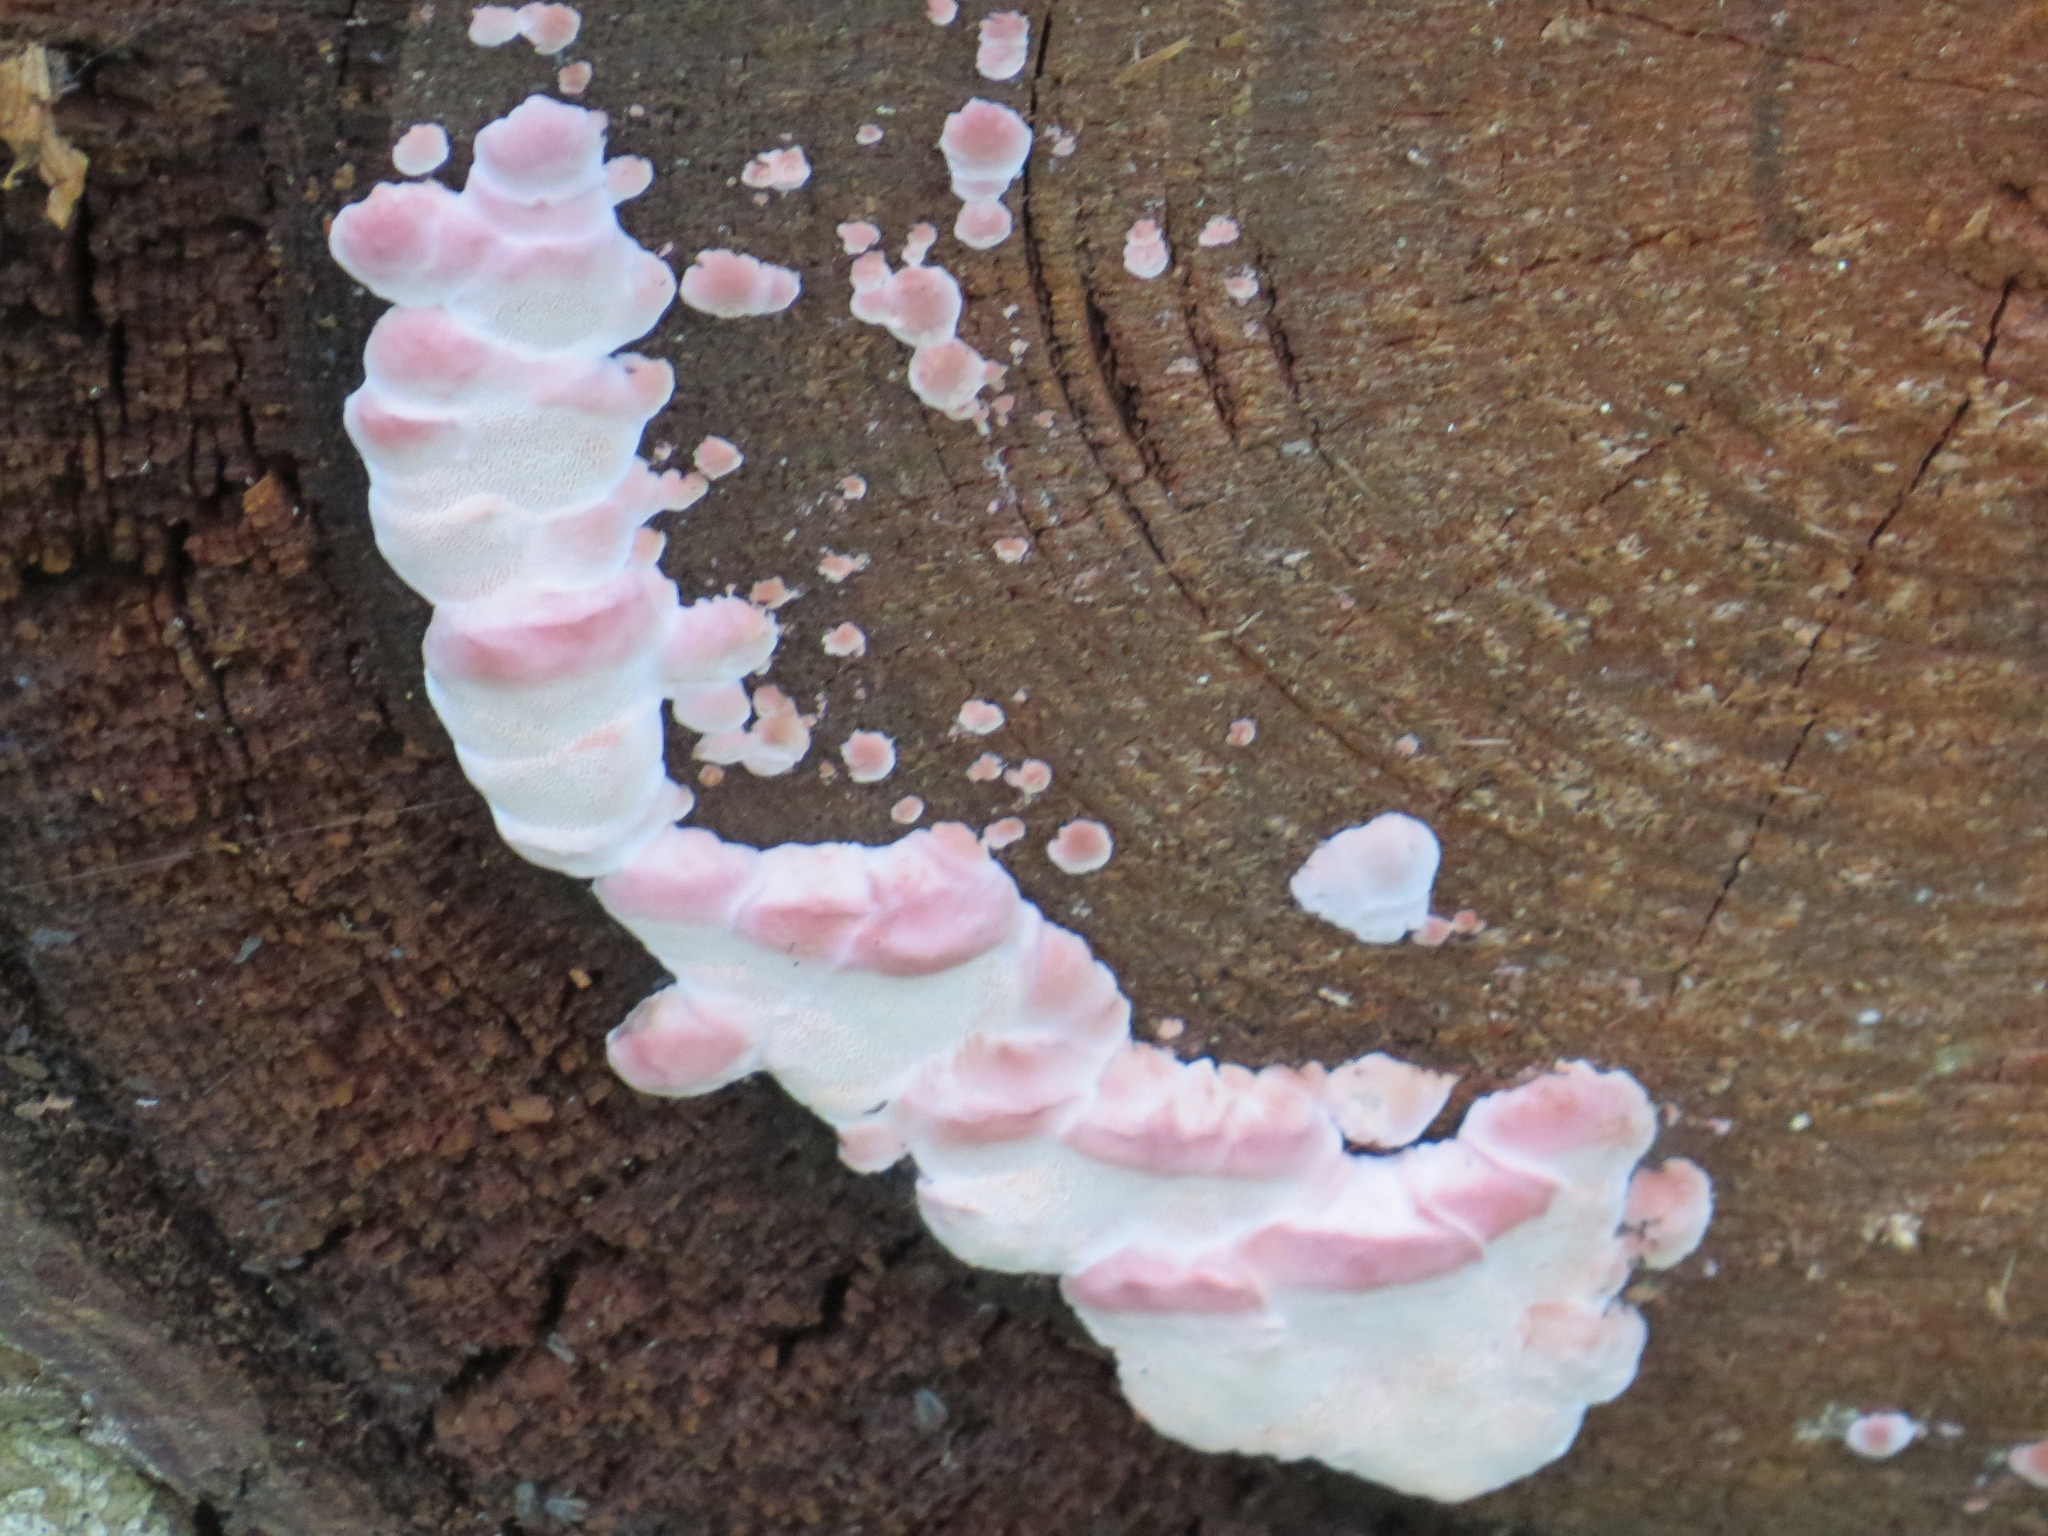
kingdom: Fungi
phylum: Basidiomycota
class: Agaricomycetes
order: Polyporales
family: Fomitopsidaceae
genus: Rhodofomes
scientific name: Rhodofomes cajanderi
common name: Rosy conk
